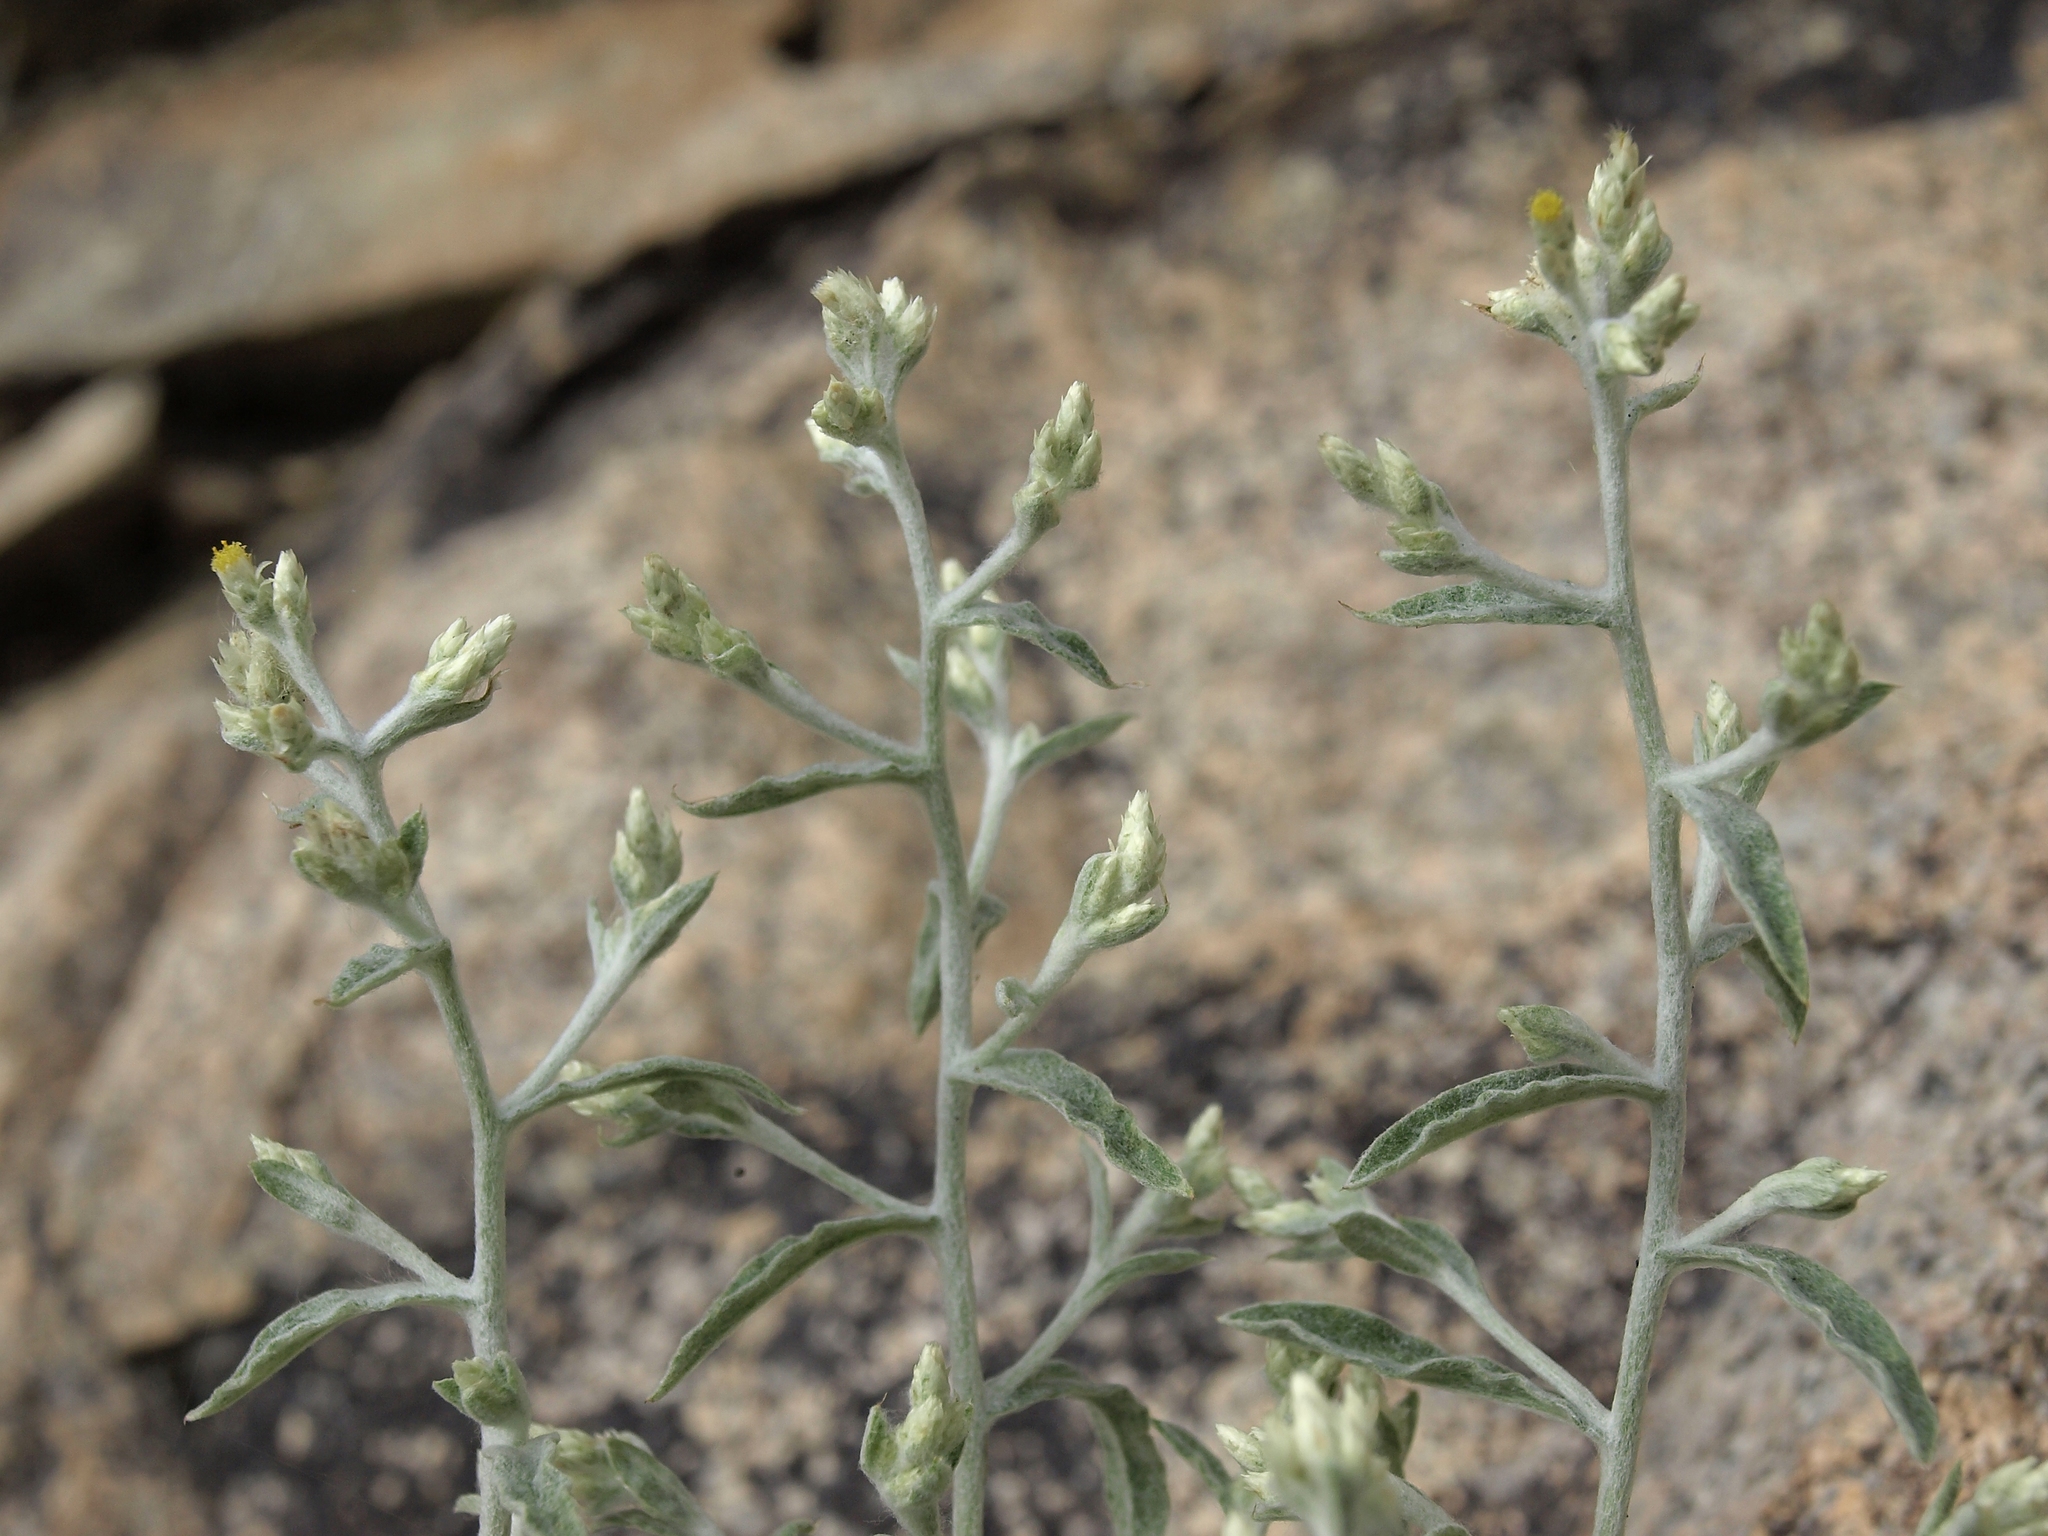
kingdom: Plantae
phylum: Tracheophyta
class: Magnoliopsida
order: Asterales
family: Asteraceae
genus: Pseudognaphalium
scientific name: Pseudognaphalium canescens
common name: Wright's rabbit-tobacco
